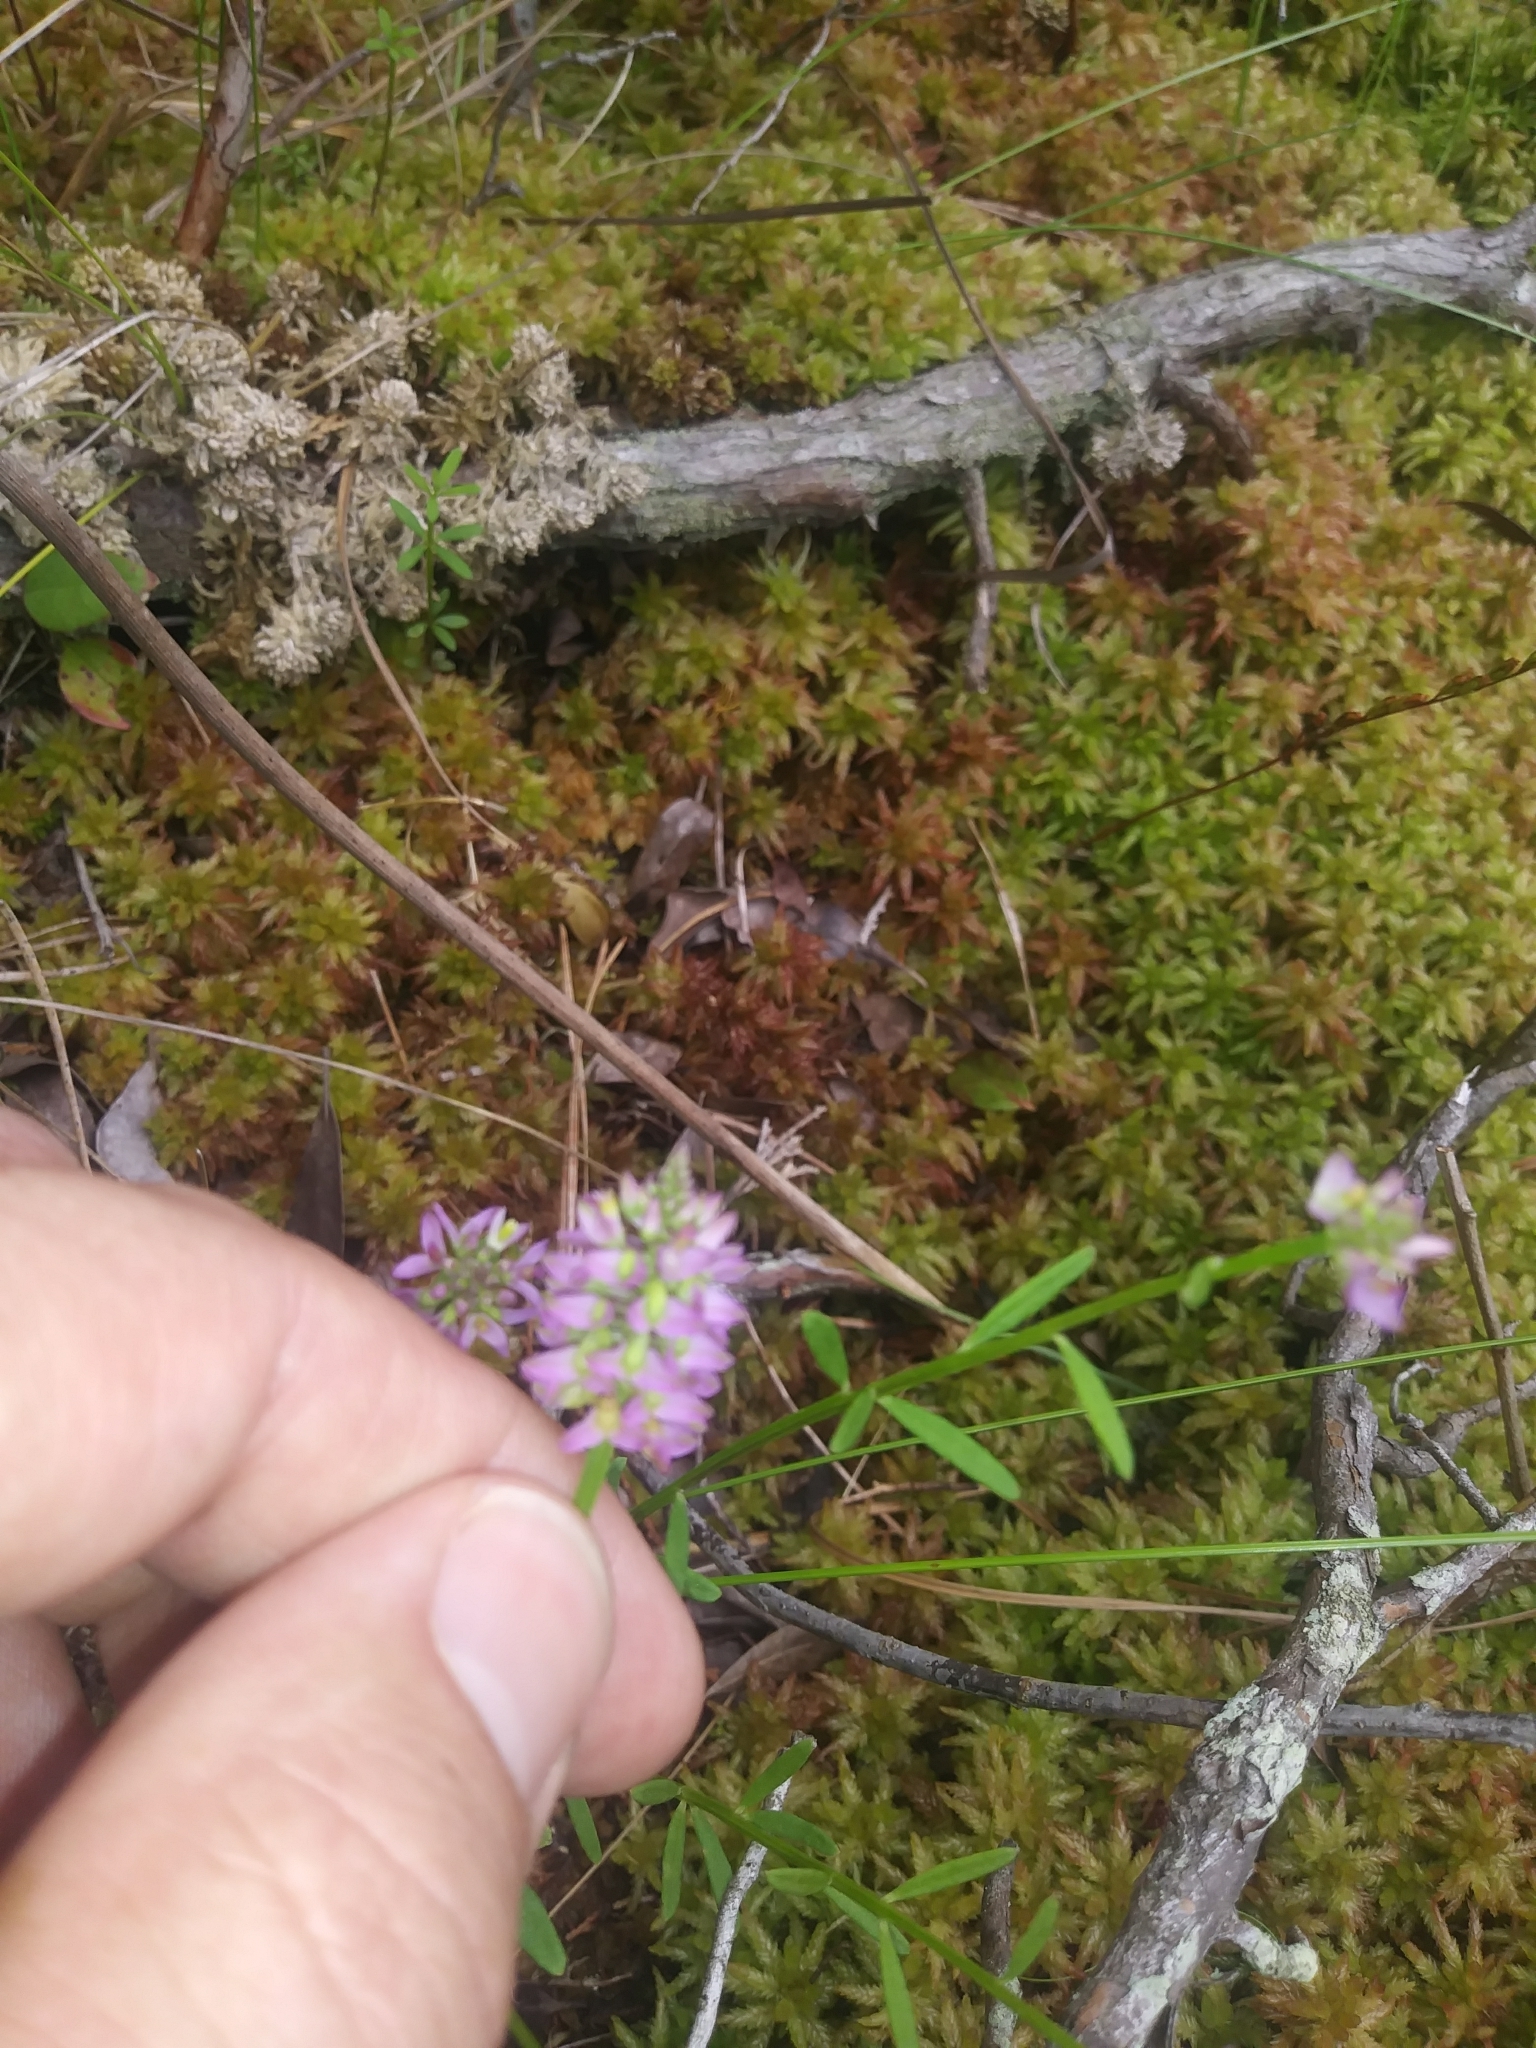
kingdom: Plantae
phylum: Tracheophyta
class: Magnoliopsida
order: Fabales
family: Polygalaceae
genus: Polygala
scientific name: Polygala cruciata
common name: Drumheads
